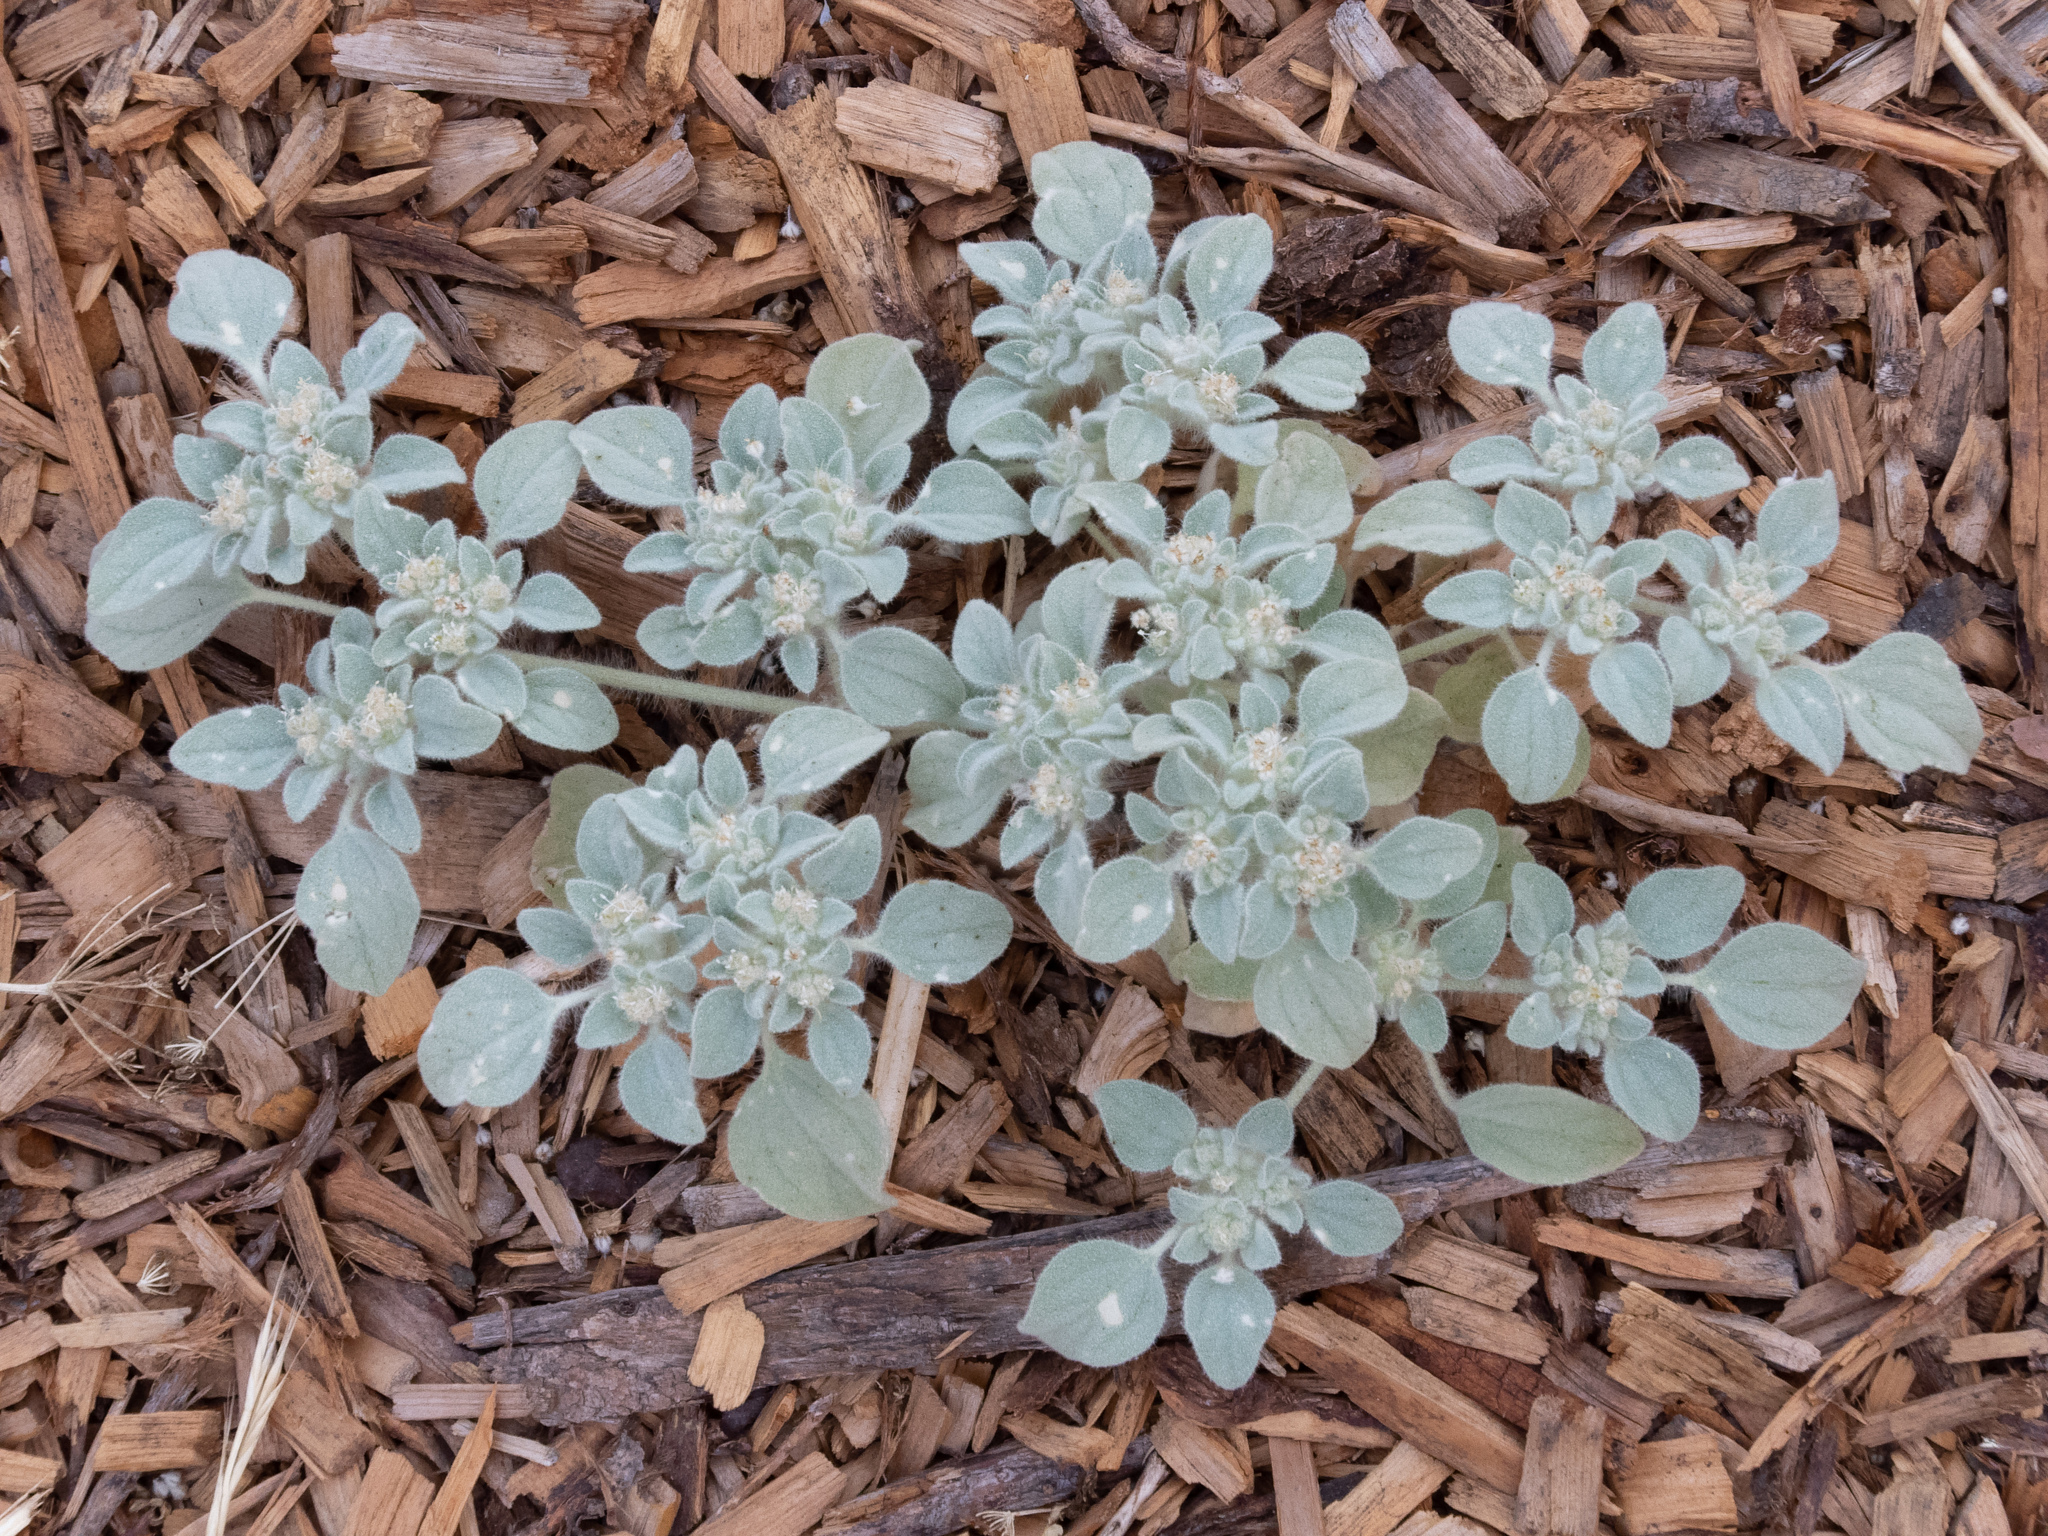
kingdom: Plantae
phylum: Tracheophyta
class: Magnoliopsida
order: Malpighiales
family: Euphorbiaceae
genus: Croton
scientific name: Croton setiger
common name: Dove weed
